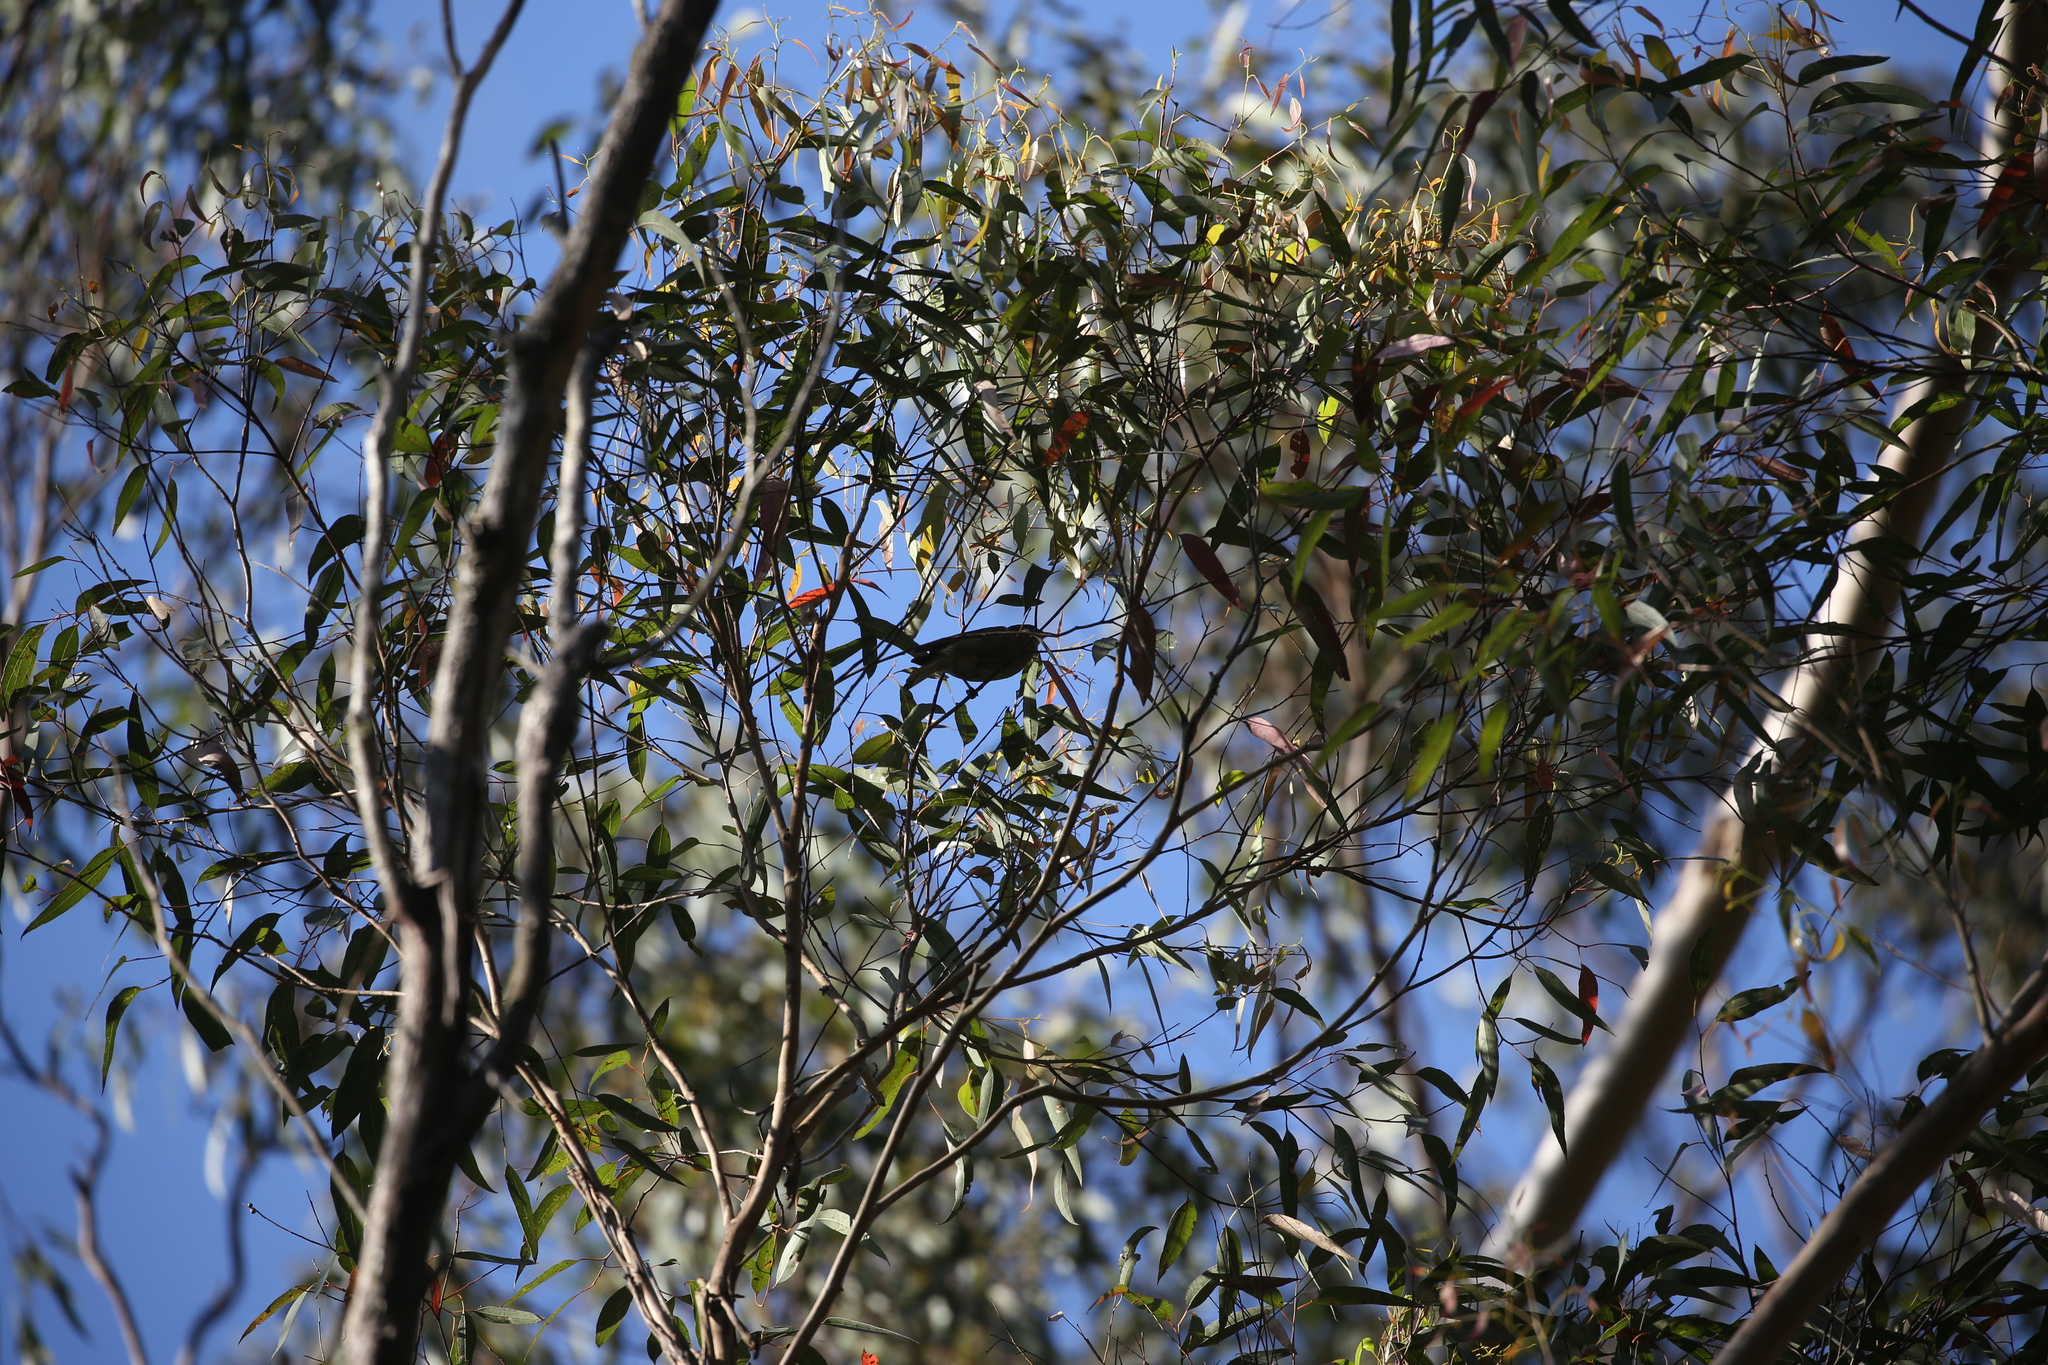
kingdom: Animalia
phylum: Chordata
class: Aves
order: Passeriformes
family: Meliphagidae
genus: Meliphaga
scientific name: Meliphaga lewinii
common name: Lewin's honeyeater
